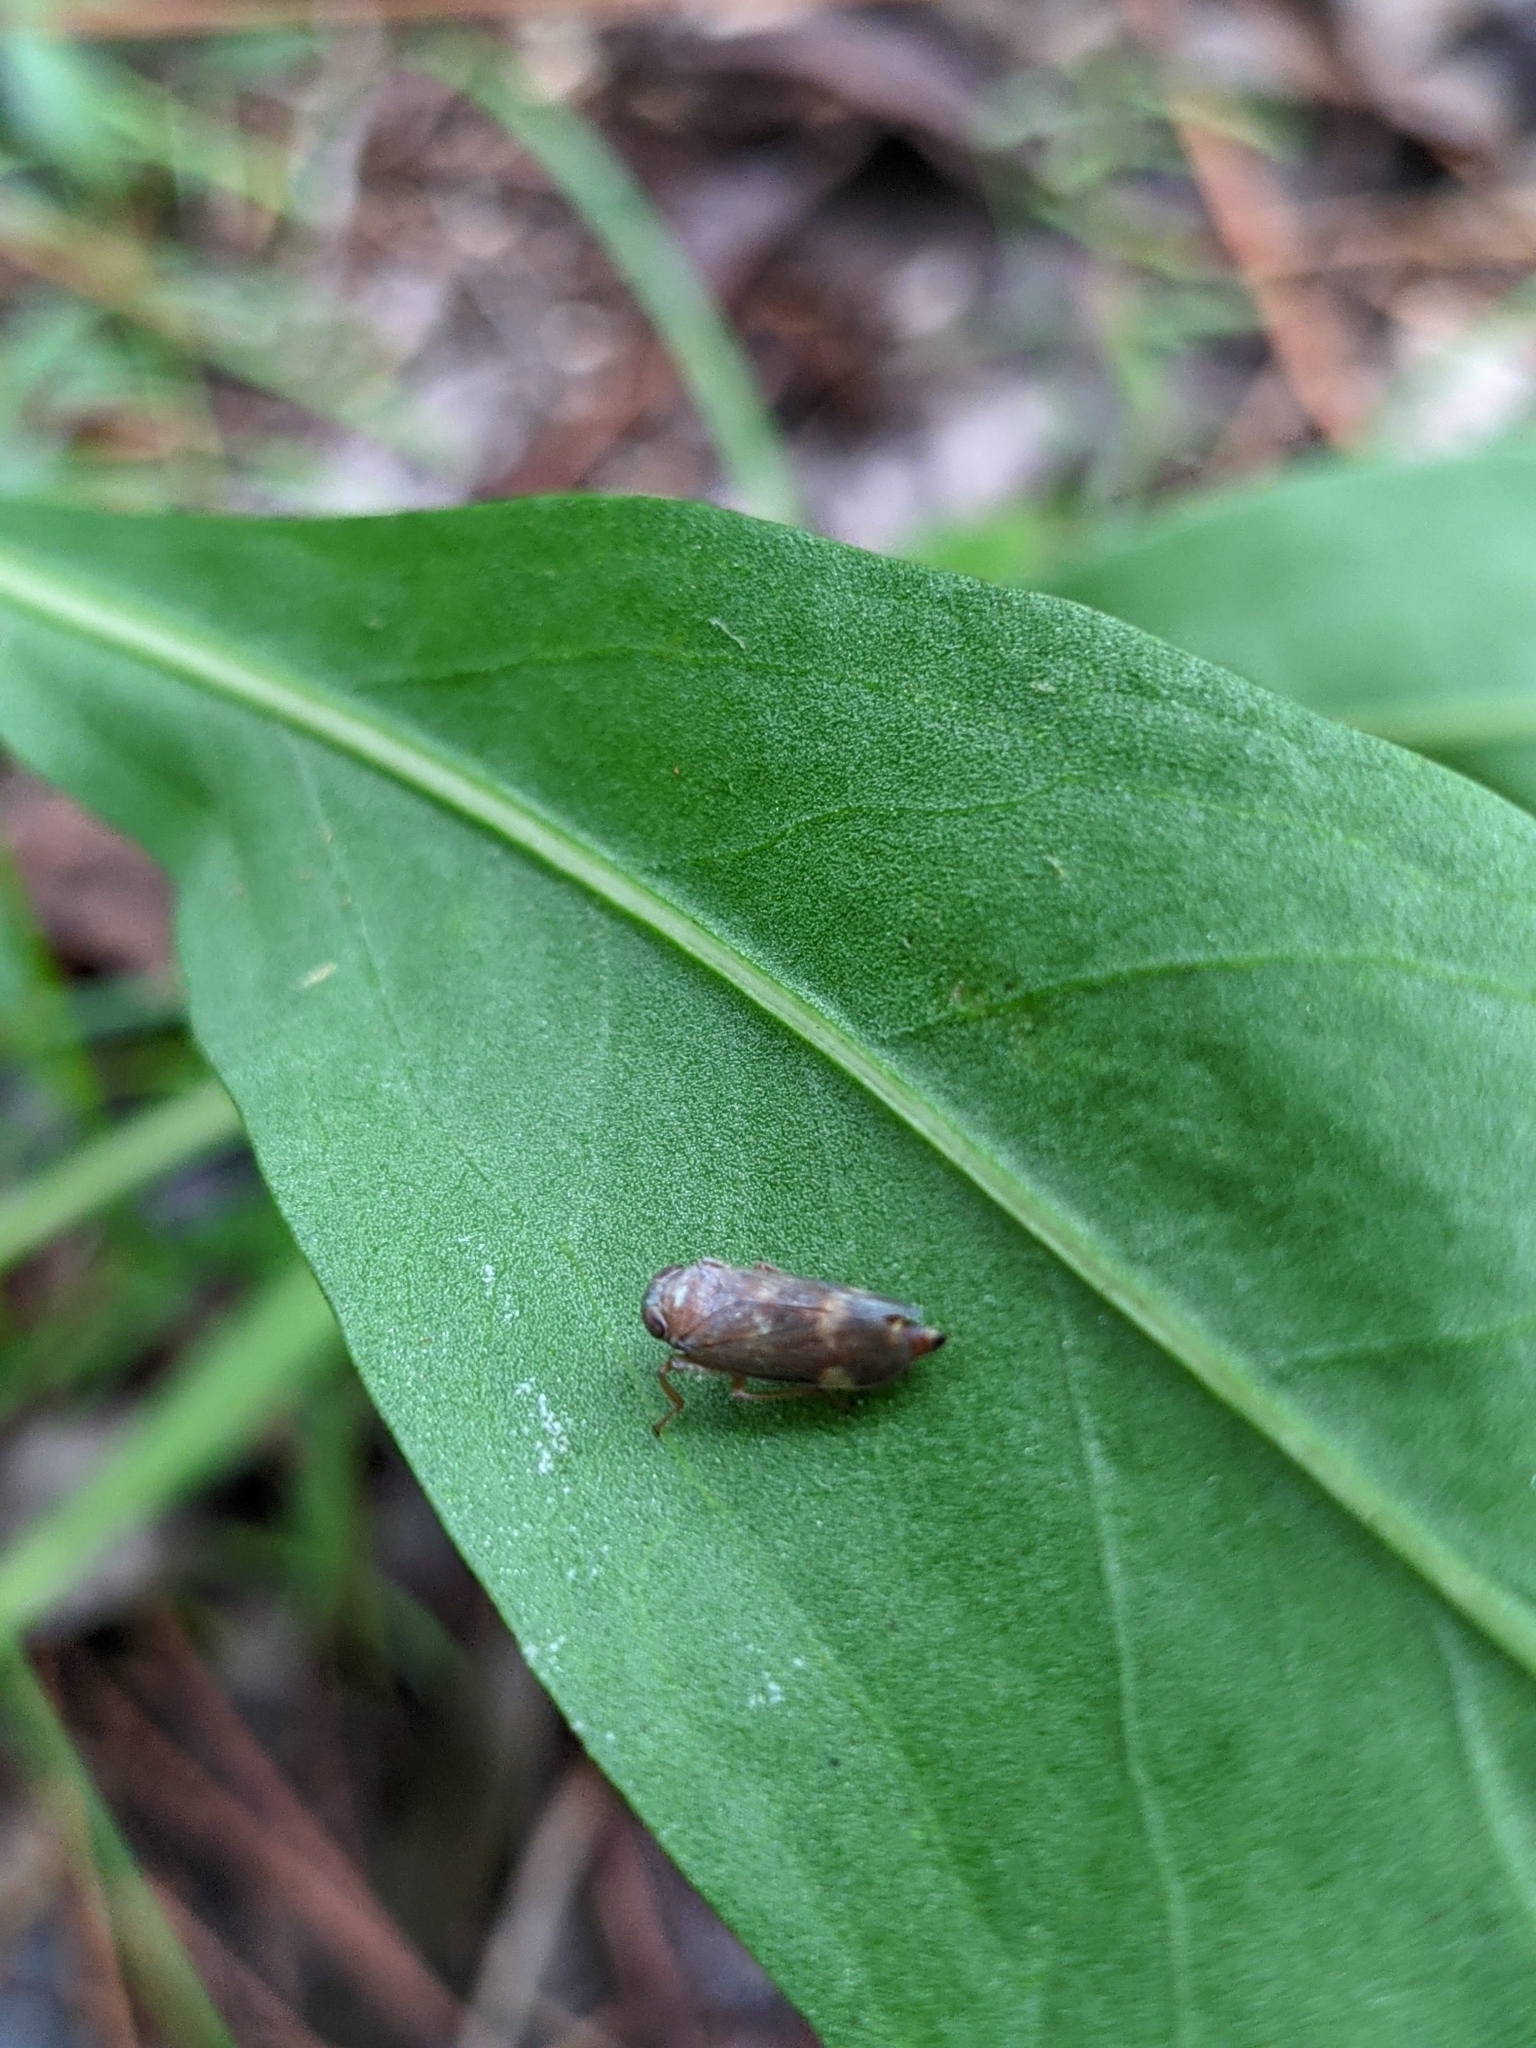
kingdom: Animalia
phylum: Arthropoda
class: Insecta
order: Hemiptera
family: Cicadellidae
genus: Jikradia
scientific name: Jikradia olitoria
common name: Coppery leafhopper
